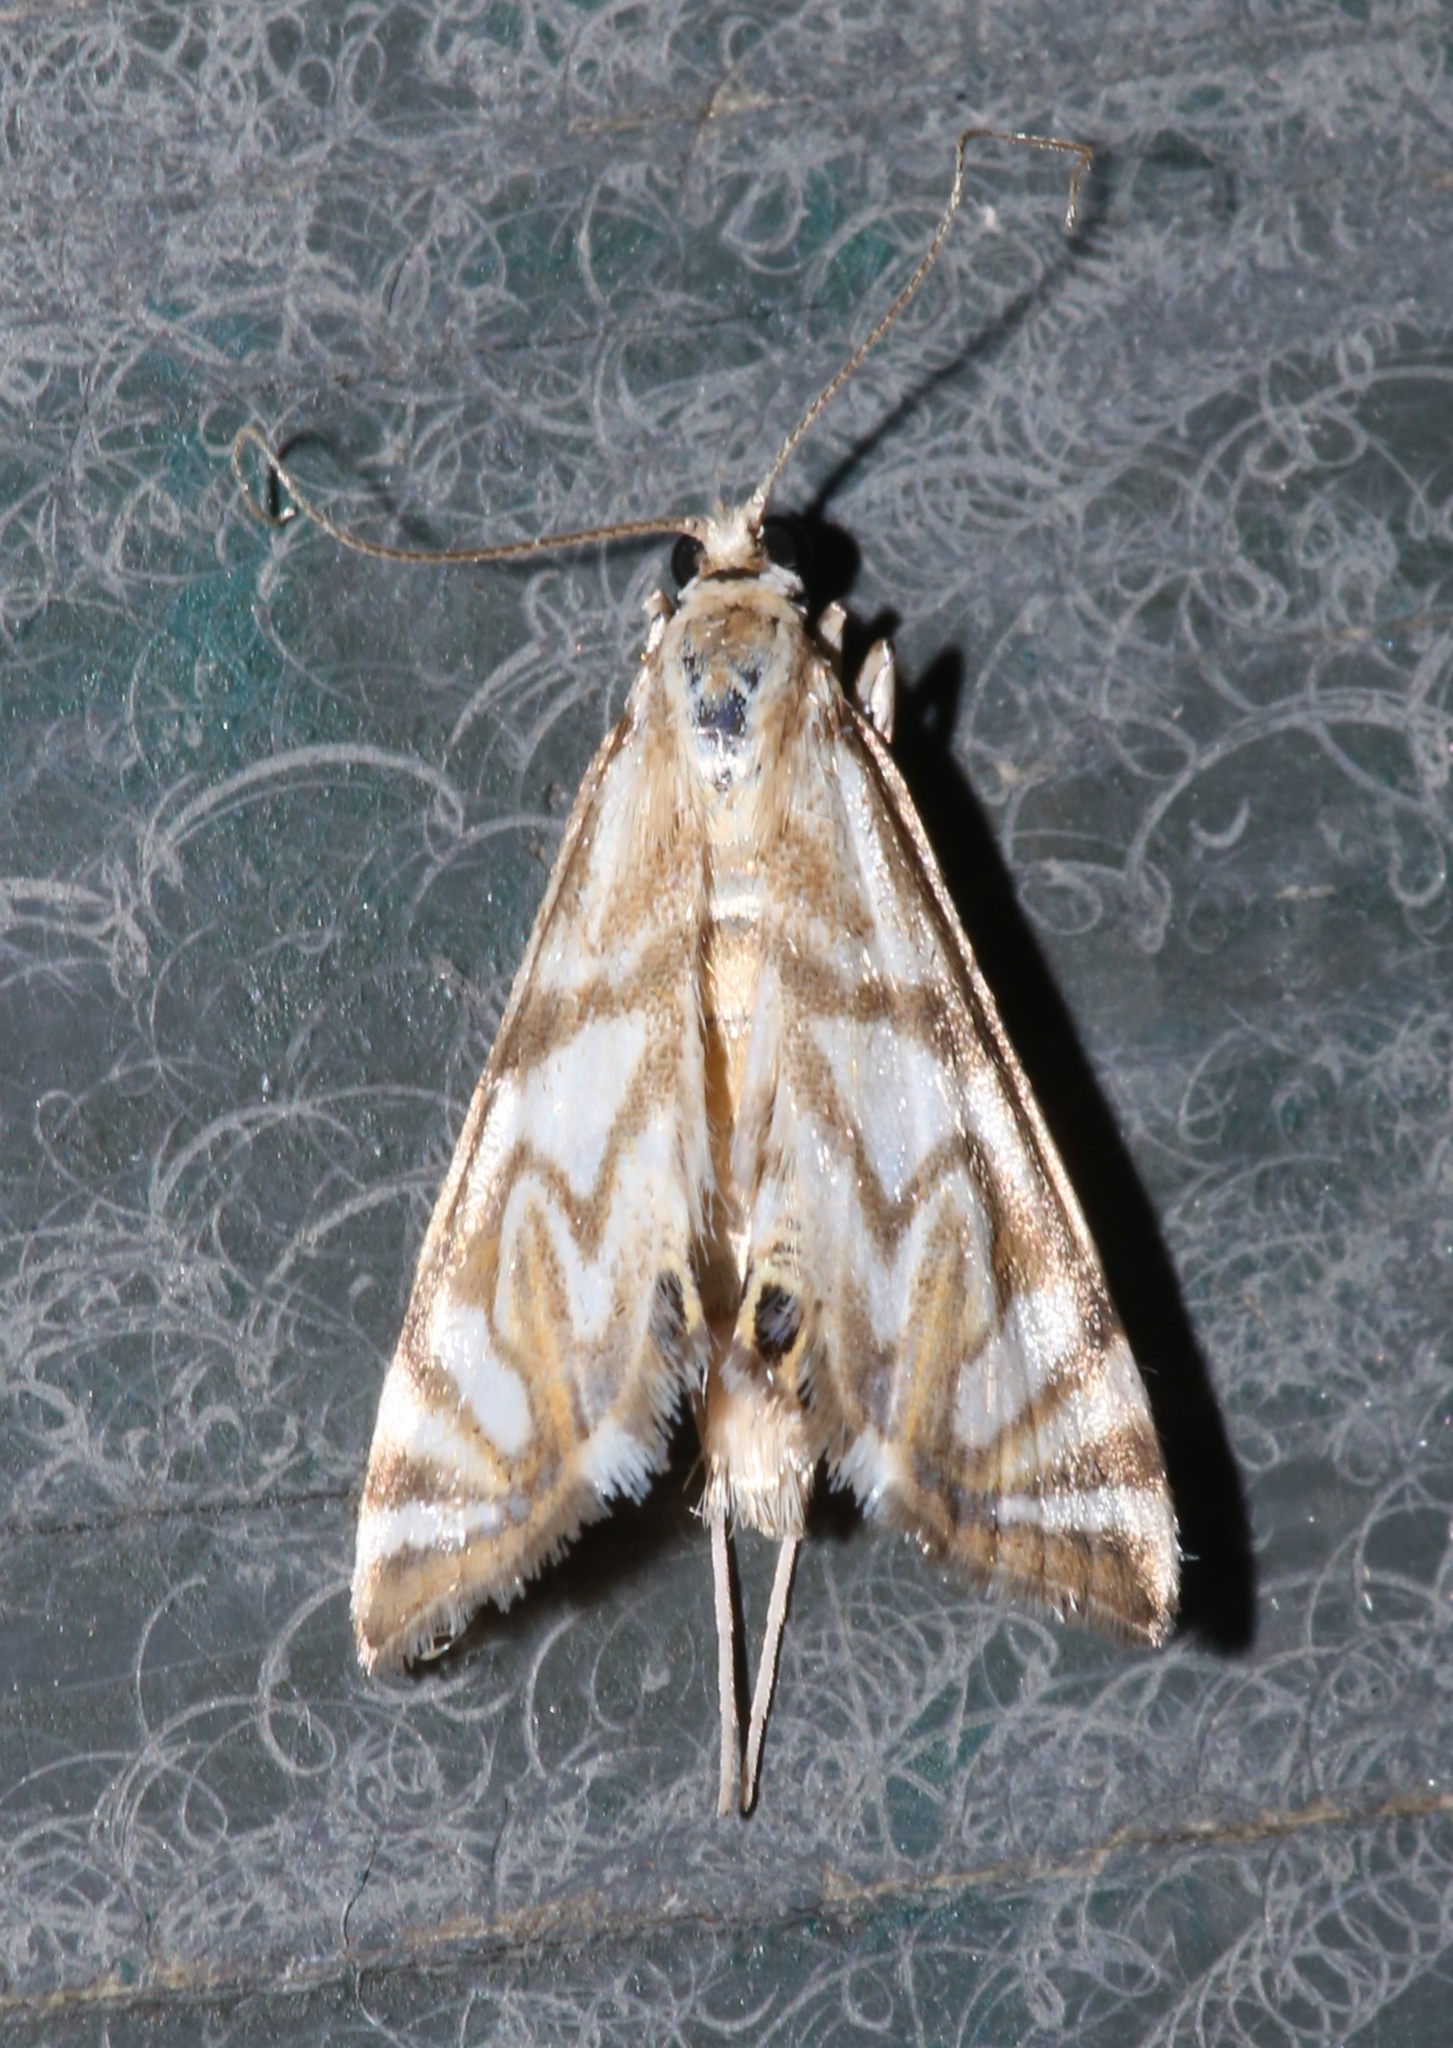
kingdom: Animalia
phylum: Arthropoda
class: Insecta
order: Lepidoptera
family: Crambidae
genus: Neocataclysta
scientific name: Neocataclysta magnificalis
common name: Scrollwork pyralid moth
